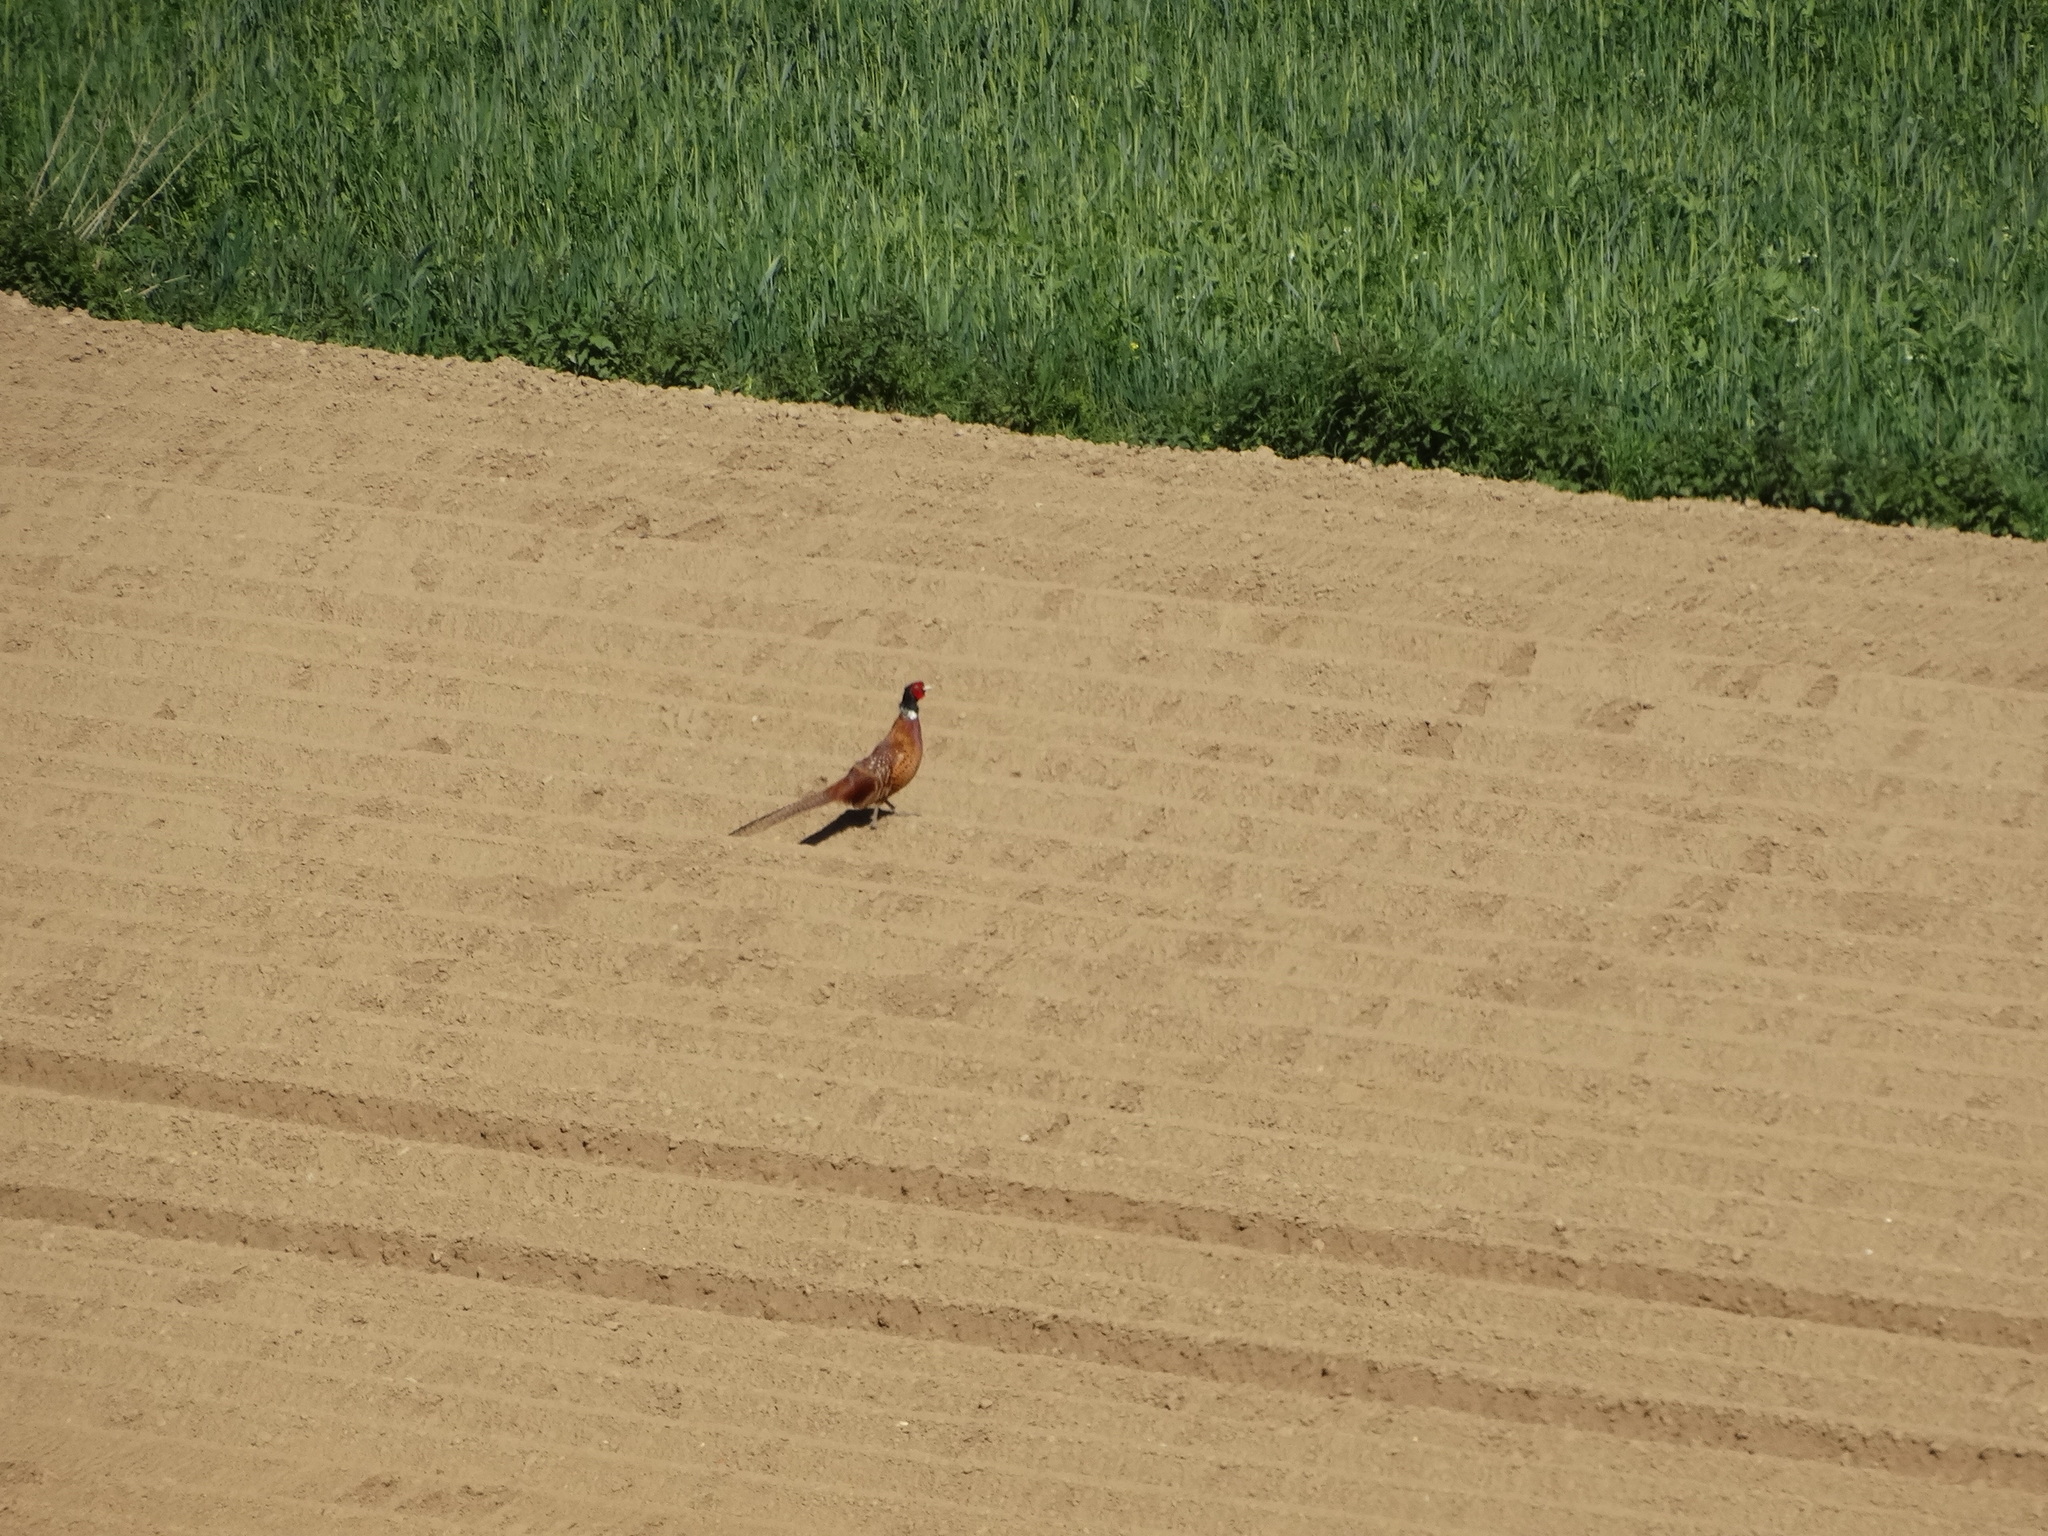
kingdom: Animalia
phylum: Chordata
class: Aves
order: Galliformes
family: Phasianidae
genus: Phasianus
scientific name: Phasianus colchicus
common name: Common pheasant
